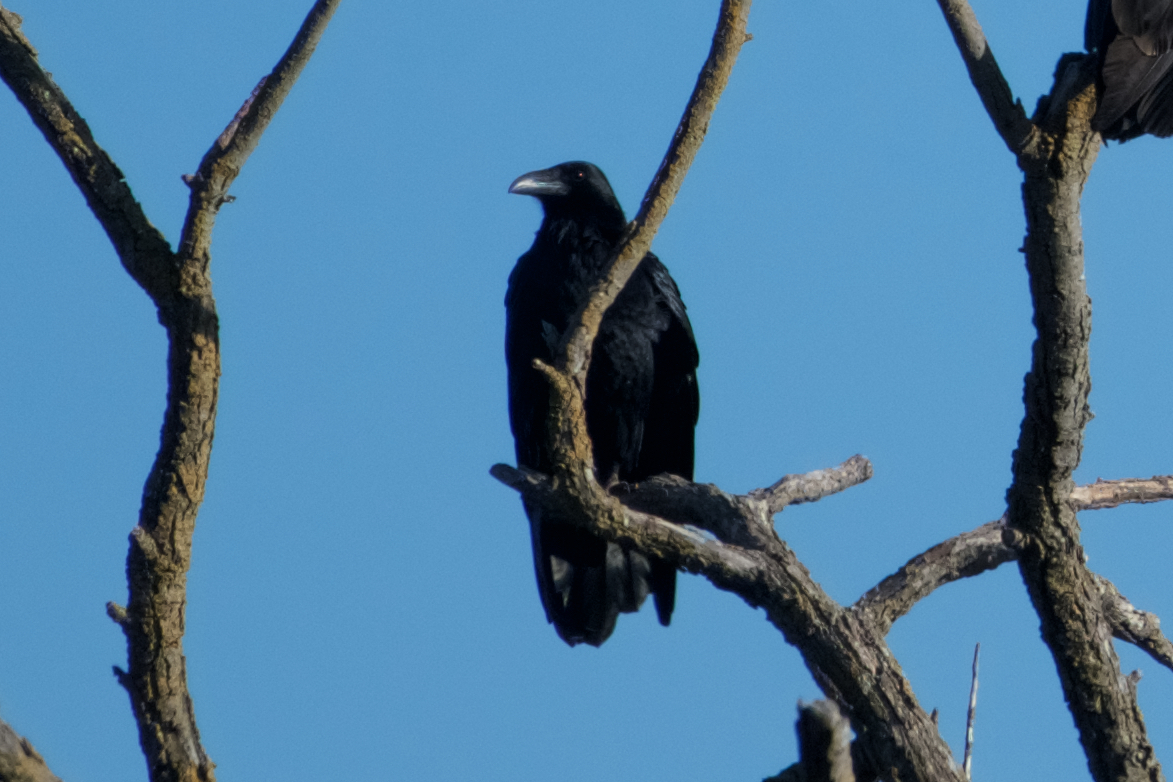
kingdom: Animalia
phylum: Chordata
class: Aves
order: Passeriformes
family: Corvidae
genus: Corvus
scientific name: Corvus corax
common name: Common raven
